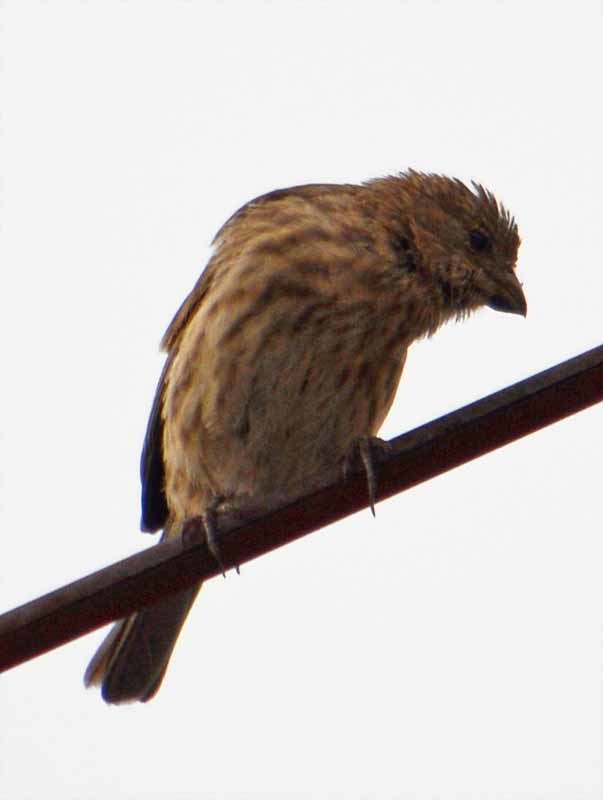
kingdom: Animalia
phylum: Chordata
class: Aves
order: Passeriformes
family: Fringillidae
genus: Haemorhous
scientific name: Haemorhous mexicanus
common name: House finch
